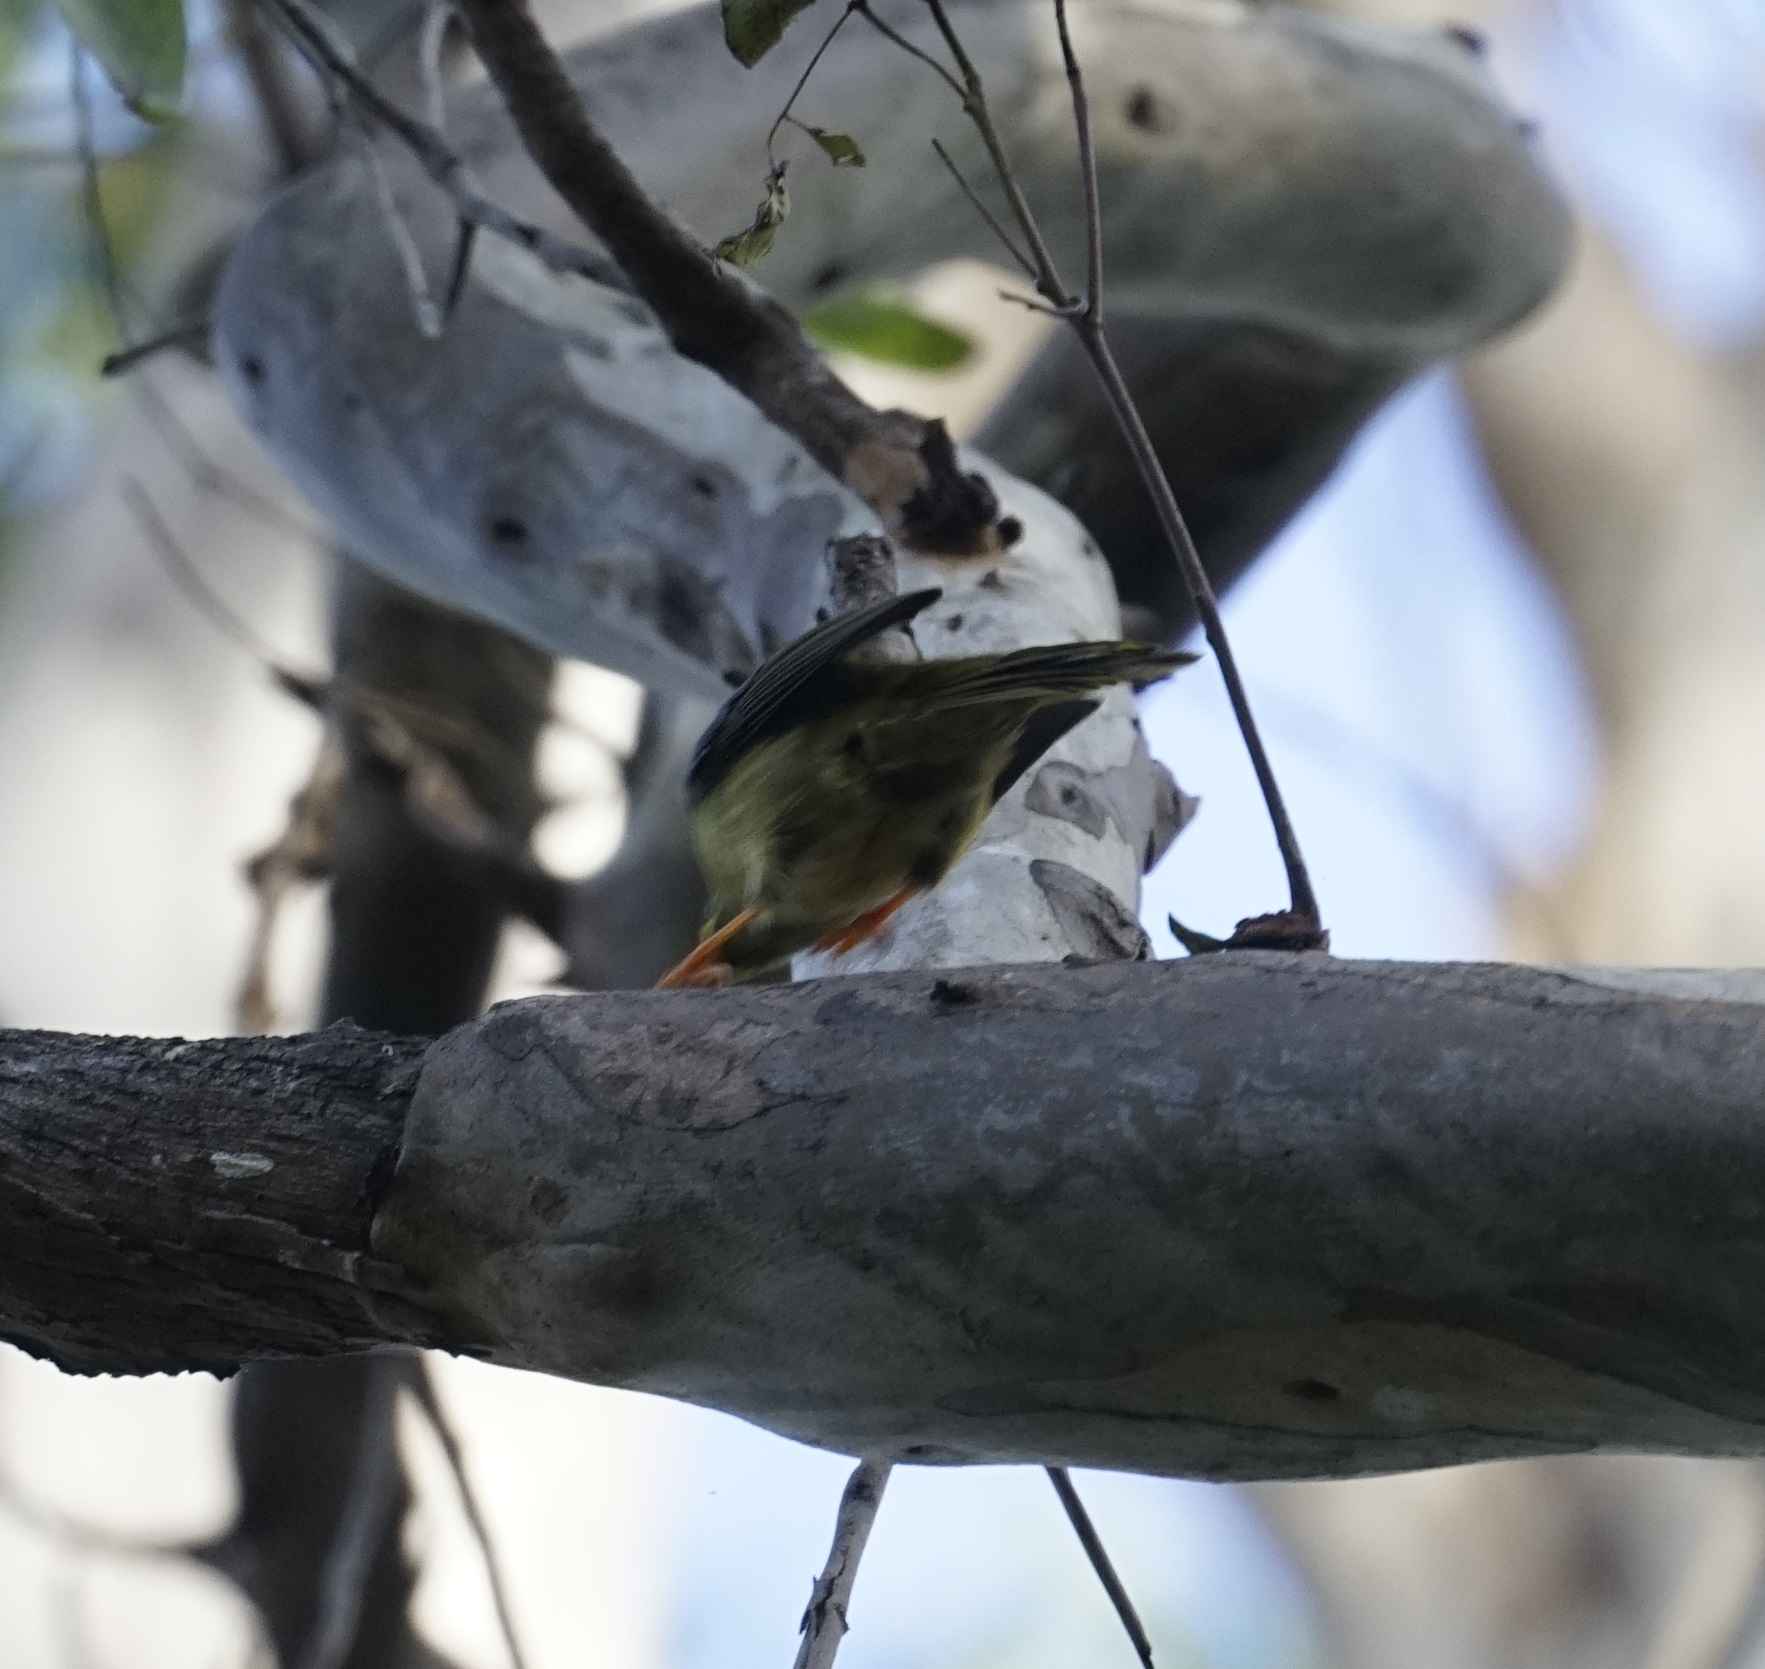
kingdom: Animalia
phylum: Chordata
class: Aves
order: Passeriformes
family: Meliphagidae
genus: Manorina
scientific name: Manorina melanophrys
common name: Bell miner
